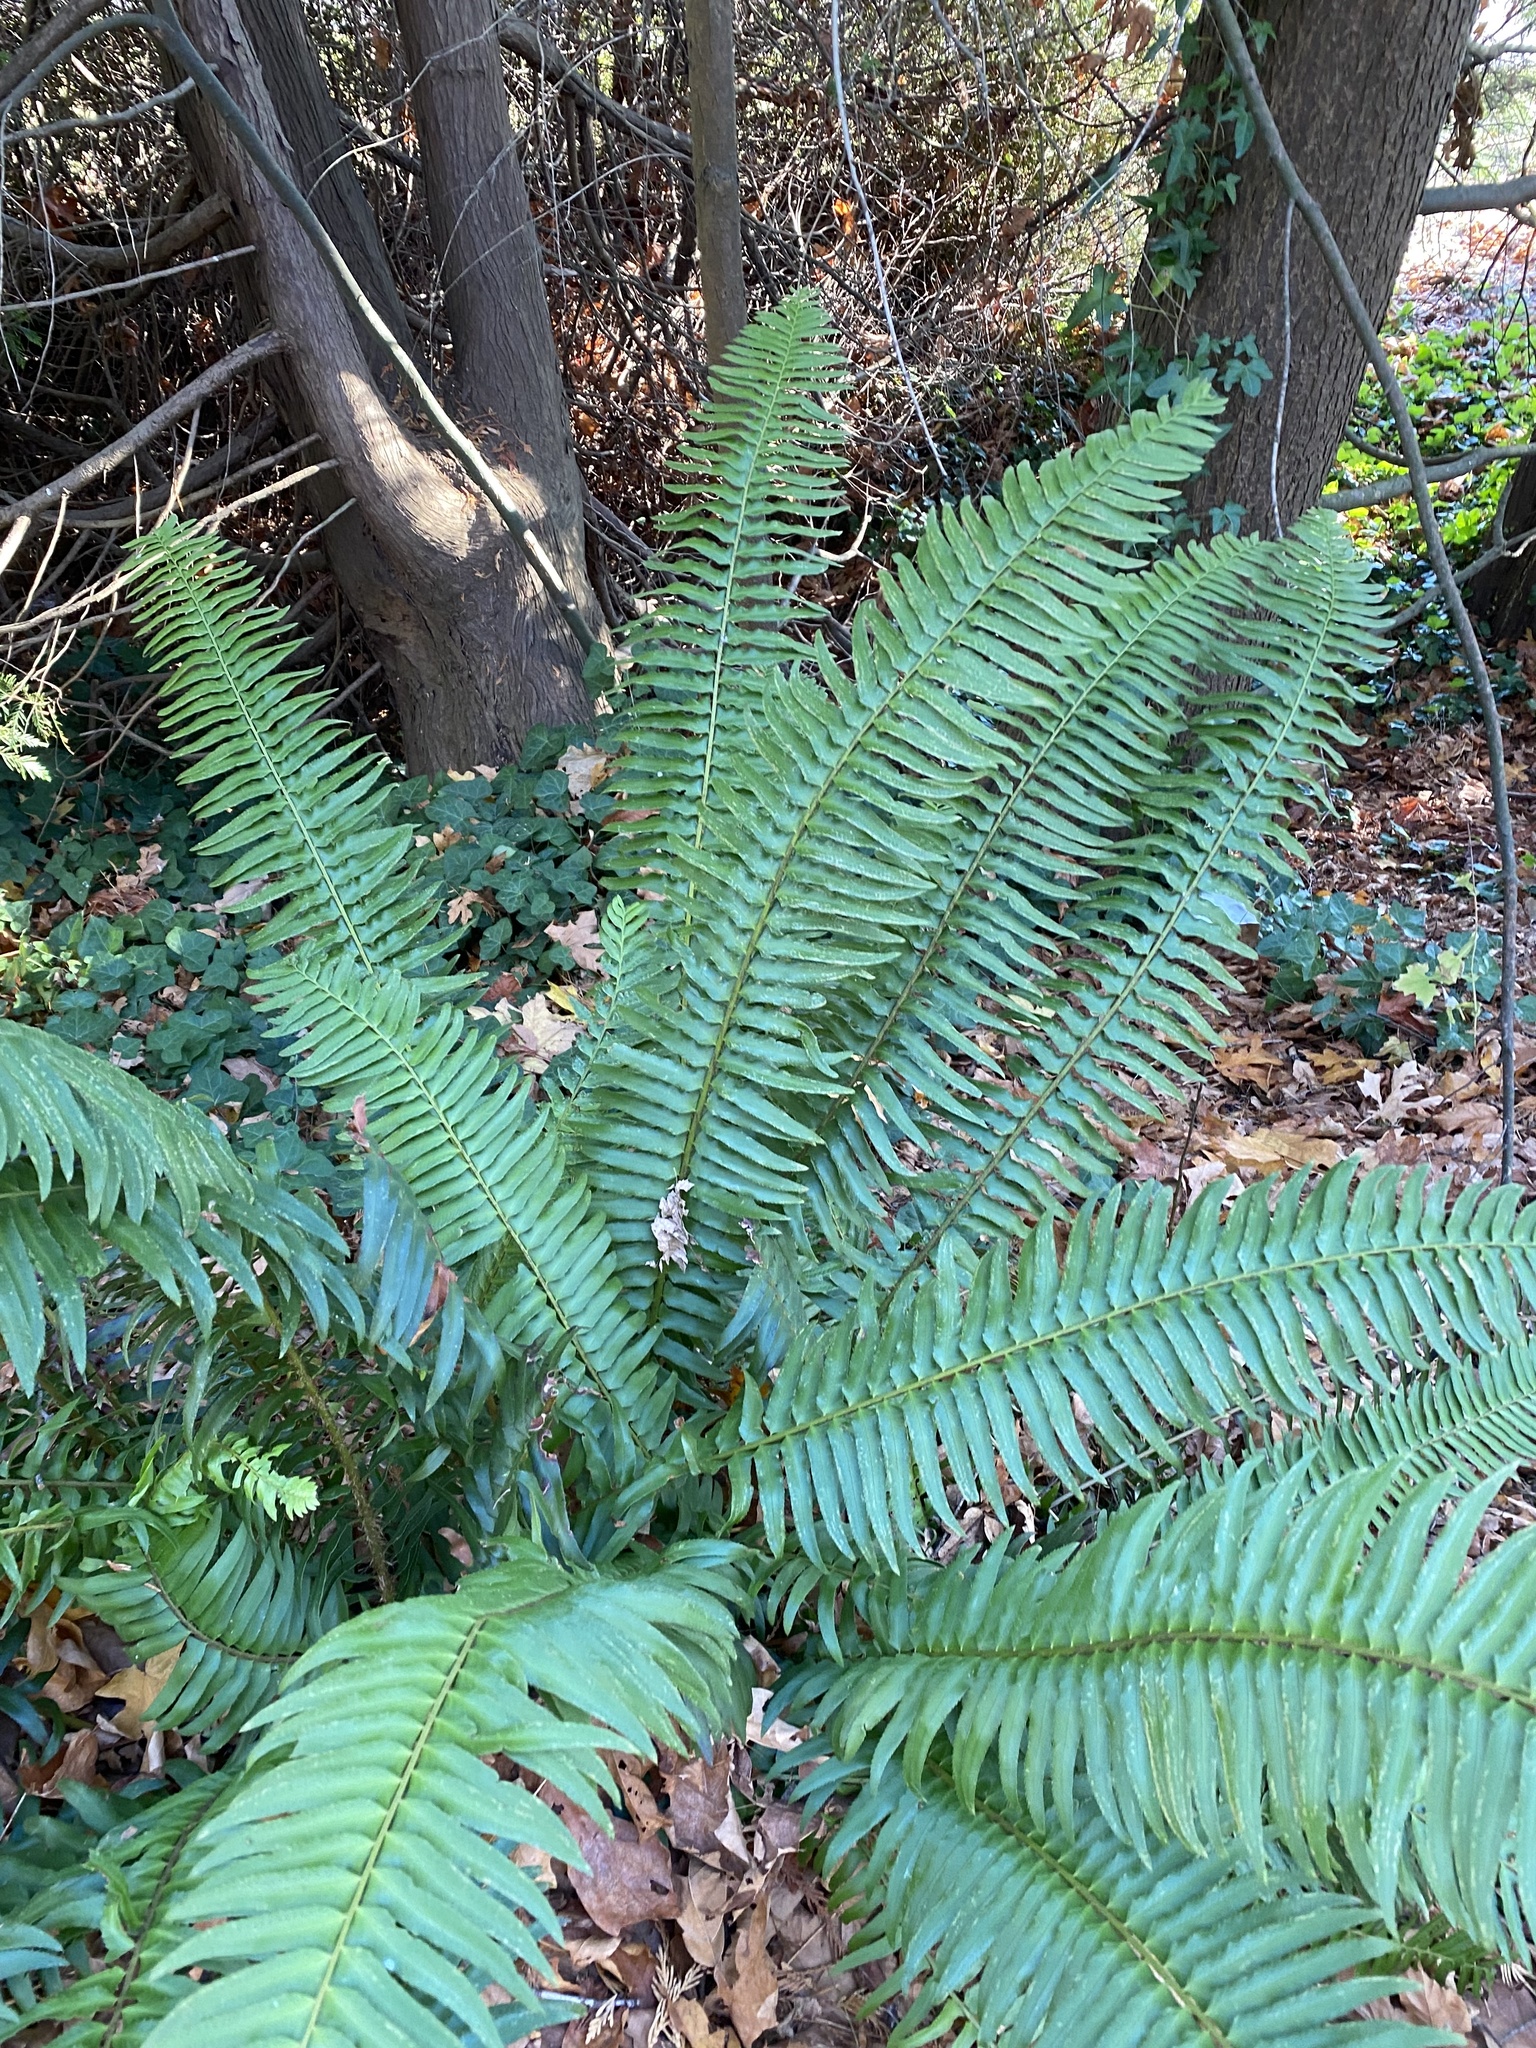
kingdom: Plantae
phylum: Tracheophyta
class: Polypodiopsida
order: Polypodiales
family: Dryopteridaceae
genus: Polystichum
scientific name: Polystichum munitum
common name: Western sword-fern
